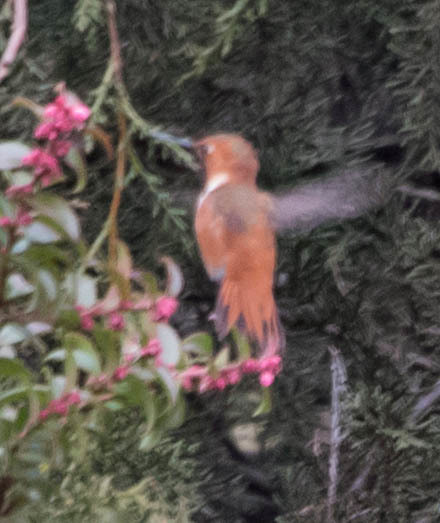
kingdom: Animalia
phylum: Chordata
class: Aves
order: Apodiformes
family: Trochilidae
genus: Selasphorus
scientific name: Selasphorus rufus
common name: Rufous hummingbird
